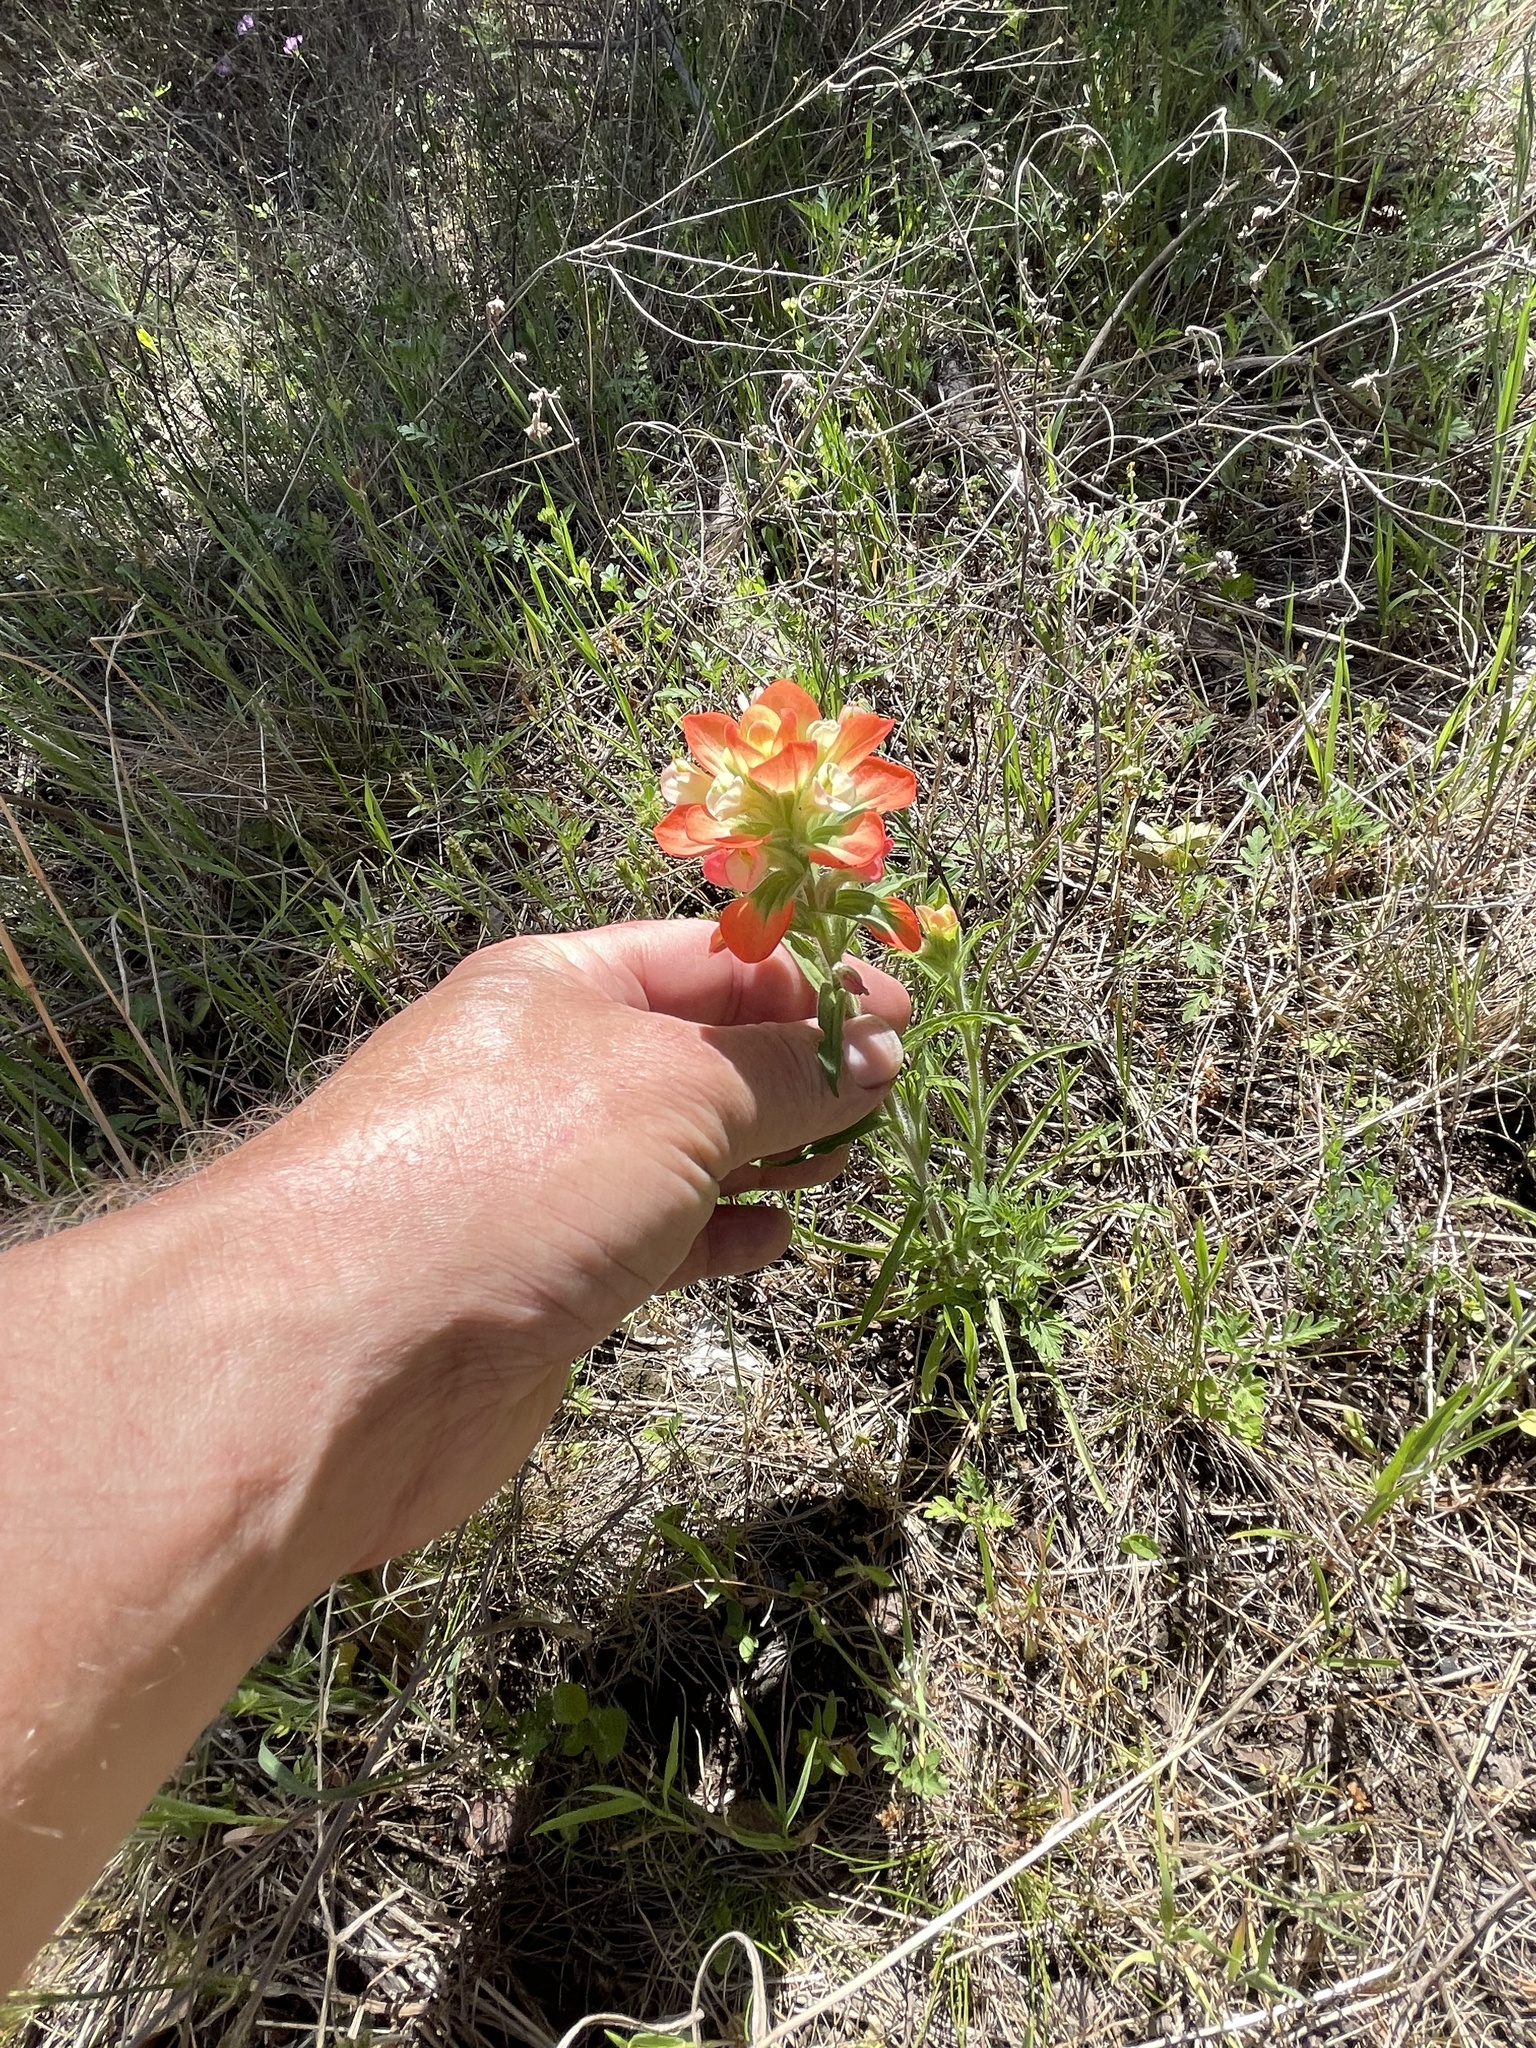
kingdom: Plantae
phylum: Tracheophyta
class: Magnoliopsida
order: Lamiales
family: Orobanchaceae
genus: Castilleja
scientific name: Castilleja indivisa
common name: Texas paintbrush
